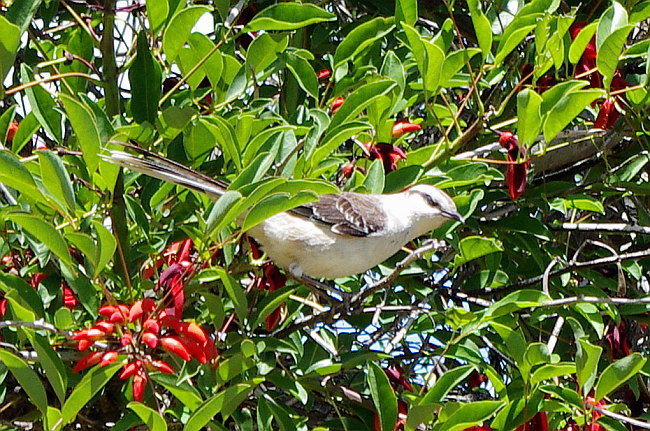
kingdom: Animalia
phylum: Chordata
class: Aves
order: Passeriformes
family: Mimidae
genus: Mimus
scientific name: Mimus saturninus
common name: Chalk-browed mockingbird
